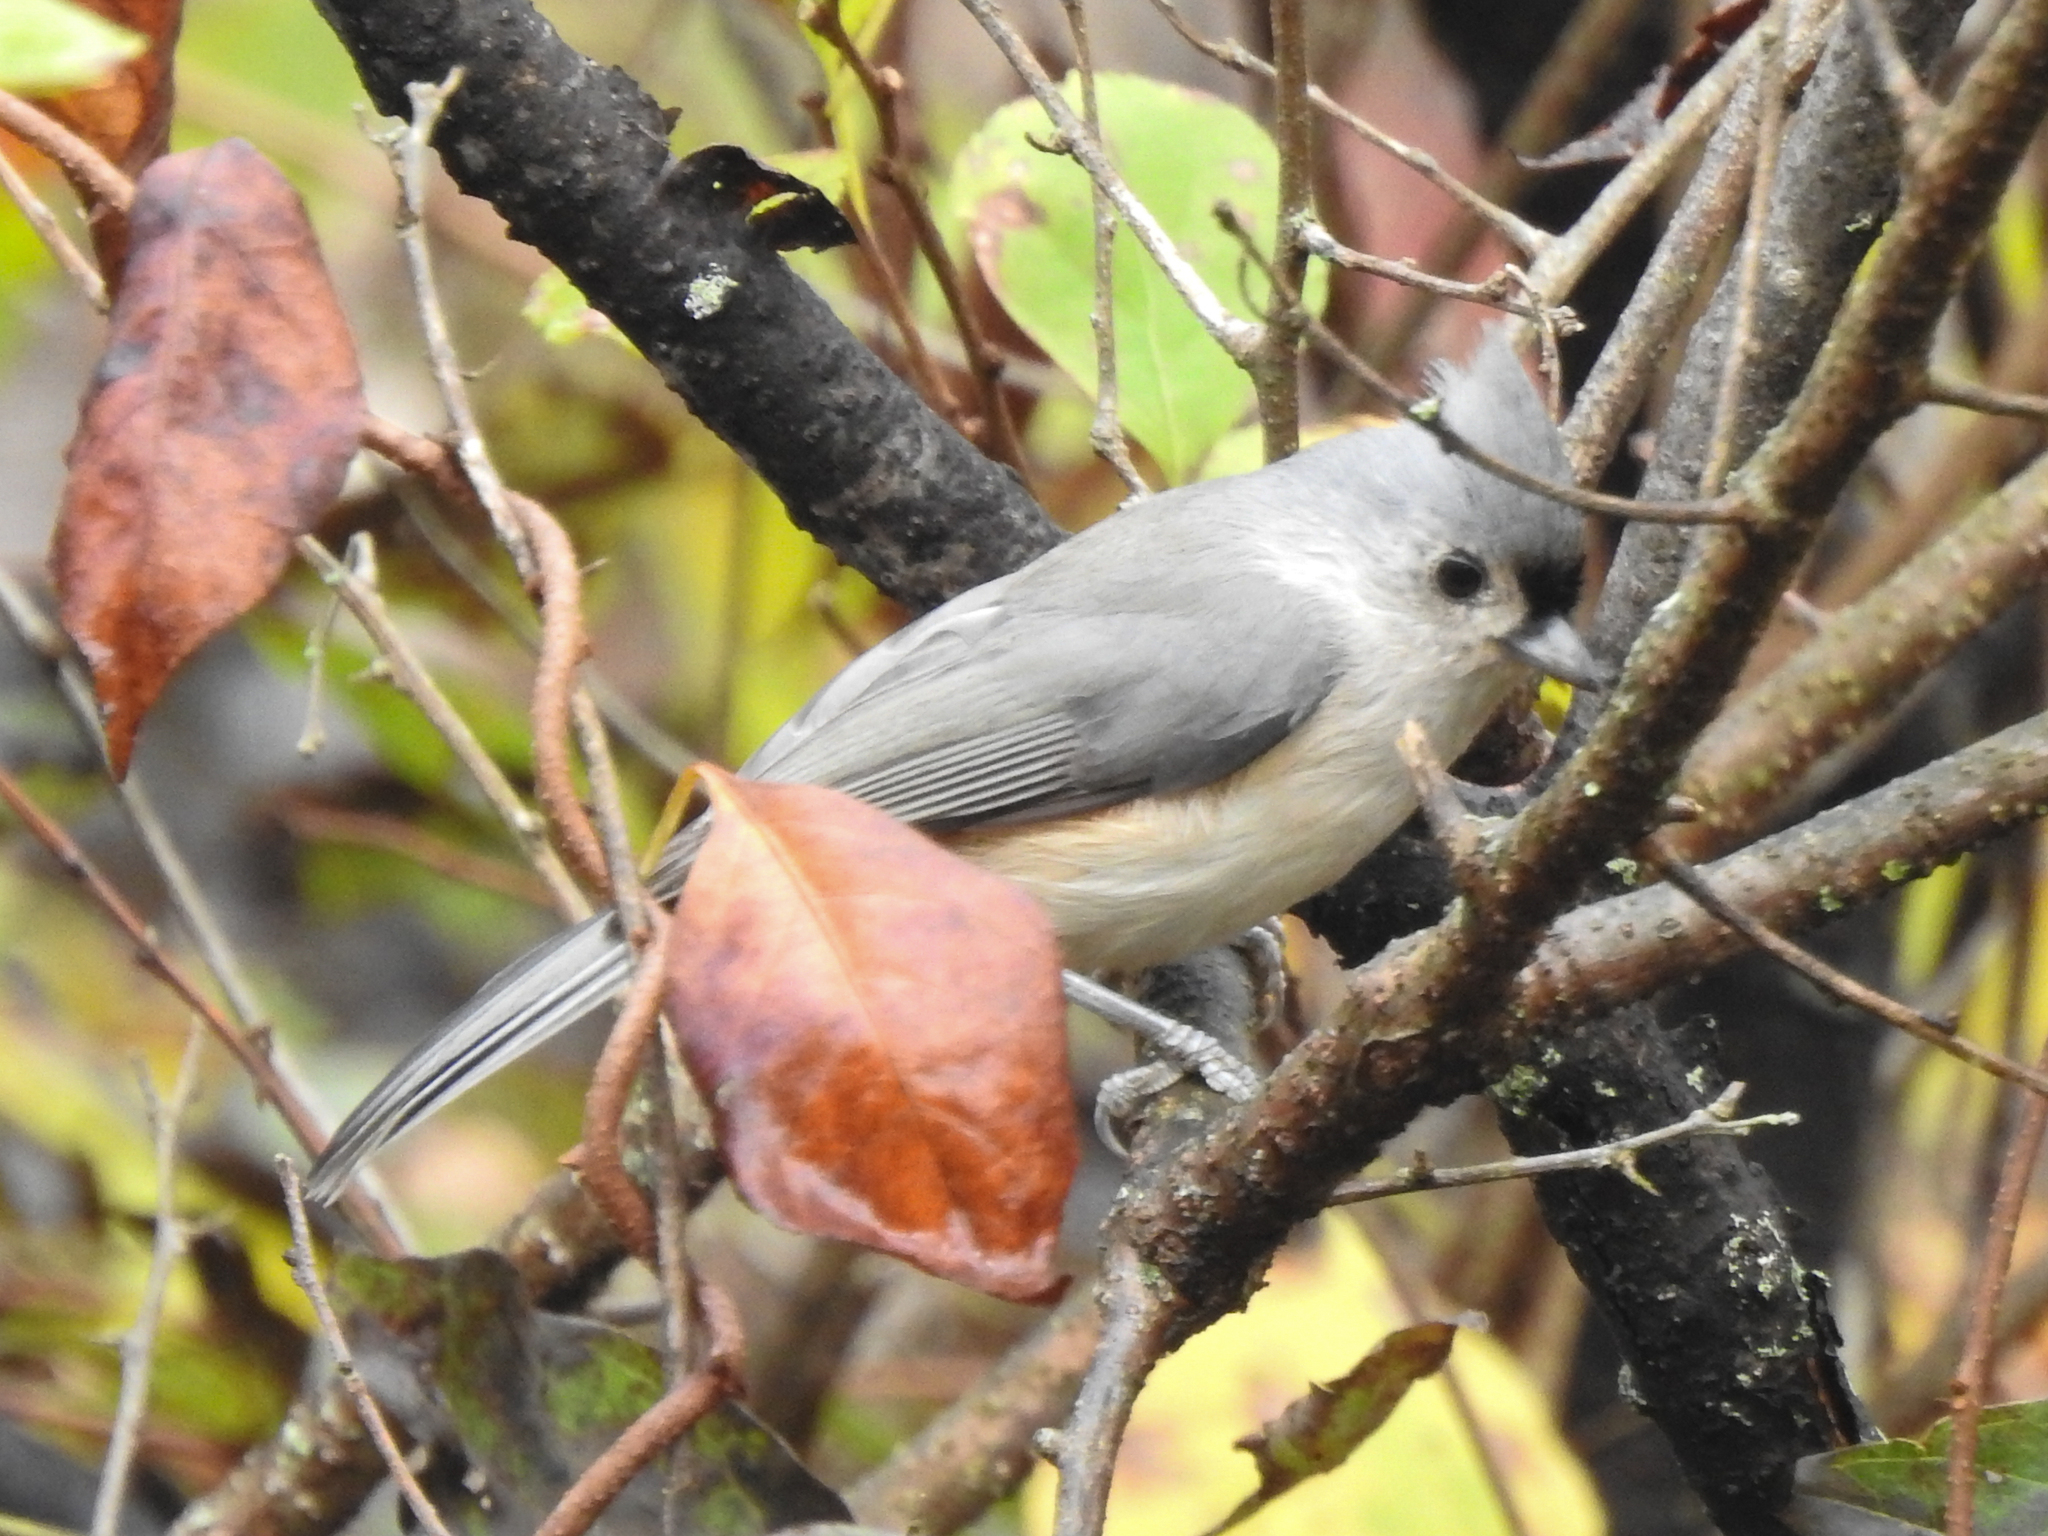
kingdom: Animalia
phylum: Chordata
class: Aves
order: Passeriformes
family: Paridae
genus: Baeolophus
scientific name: Baeolophus bicolor
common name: Tufted titmouse
